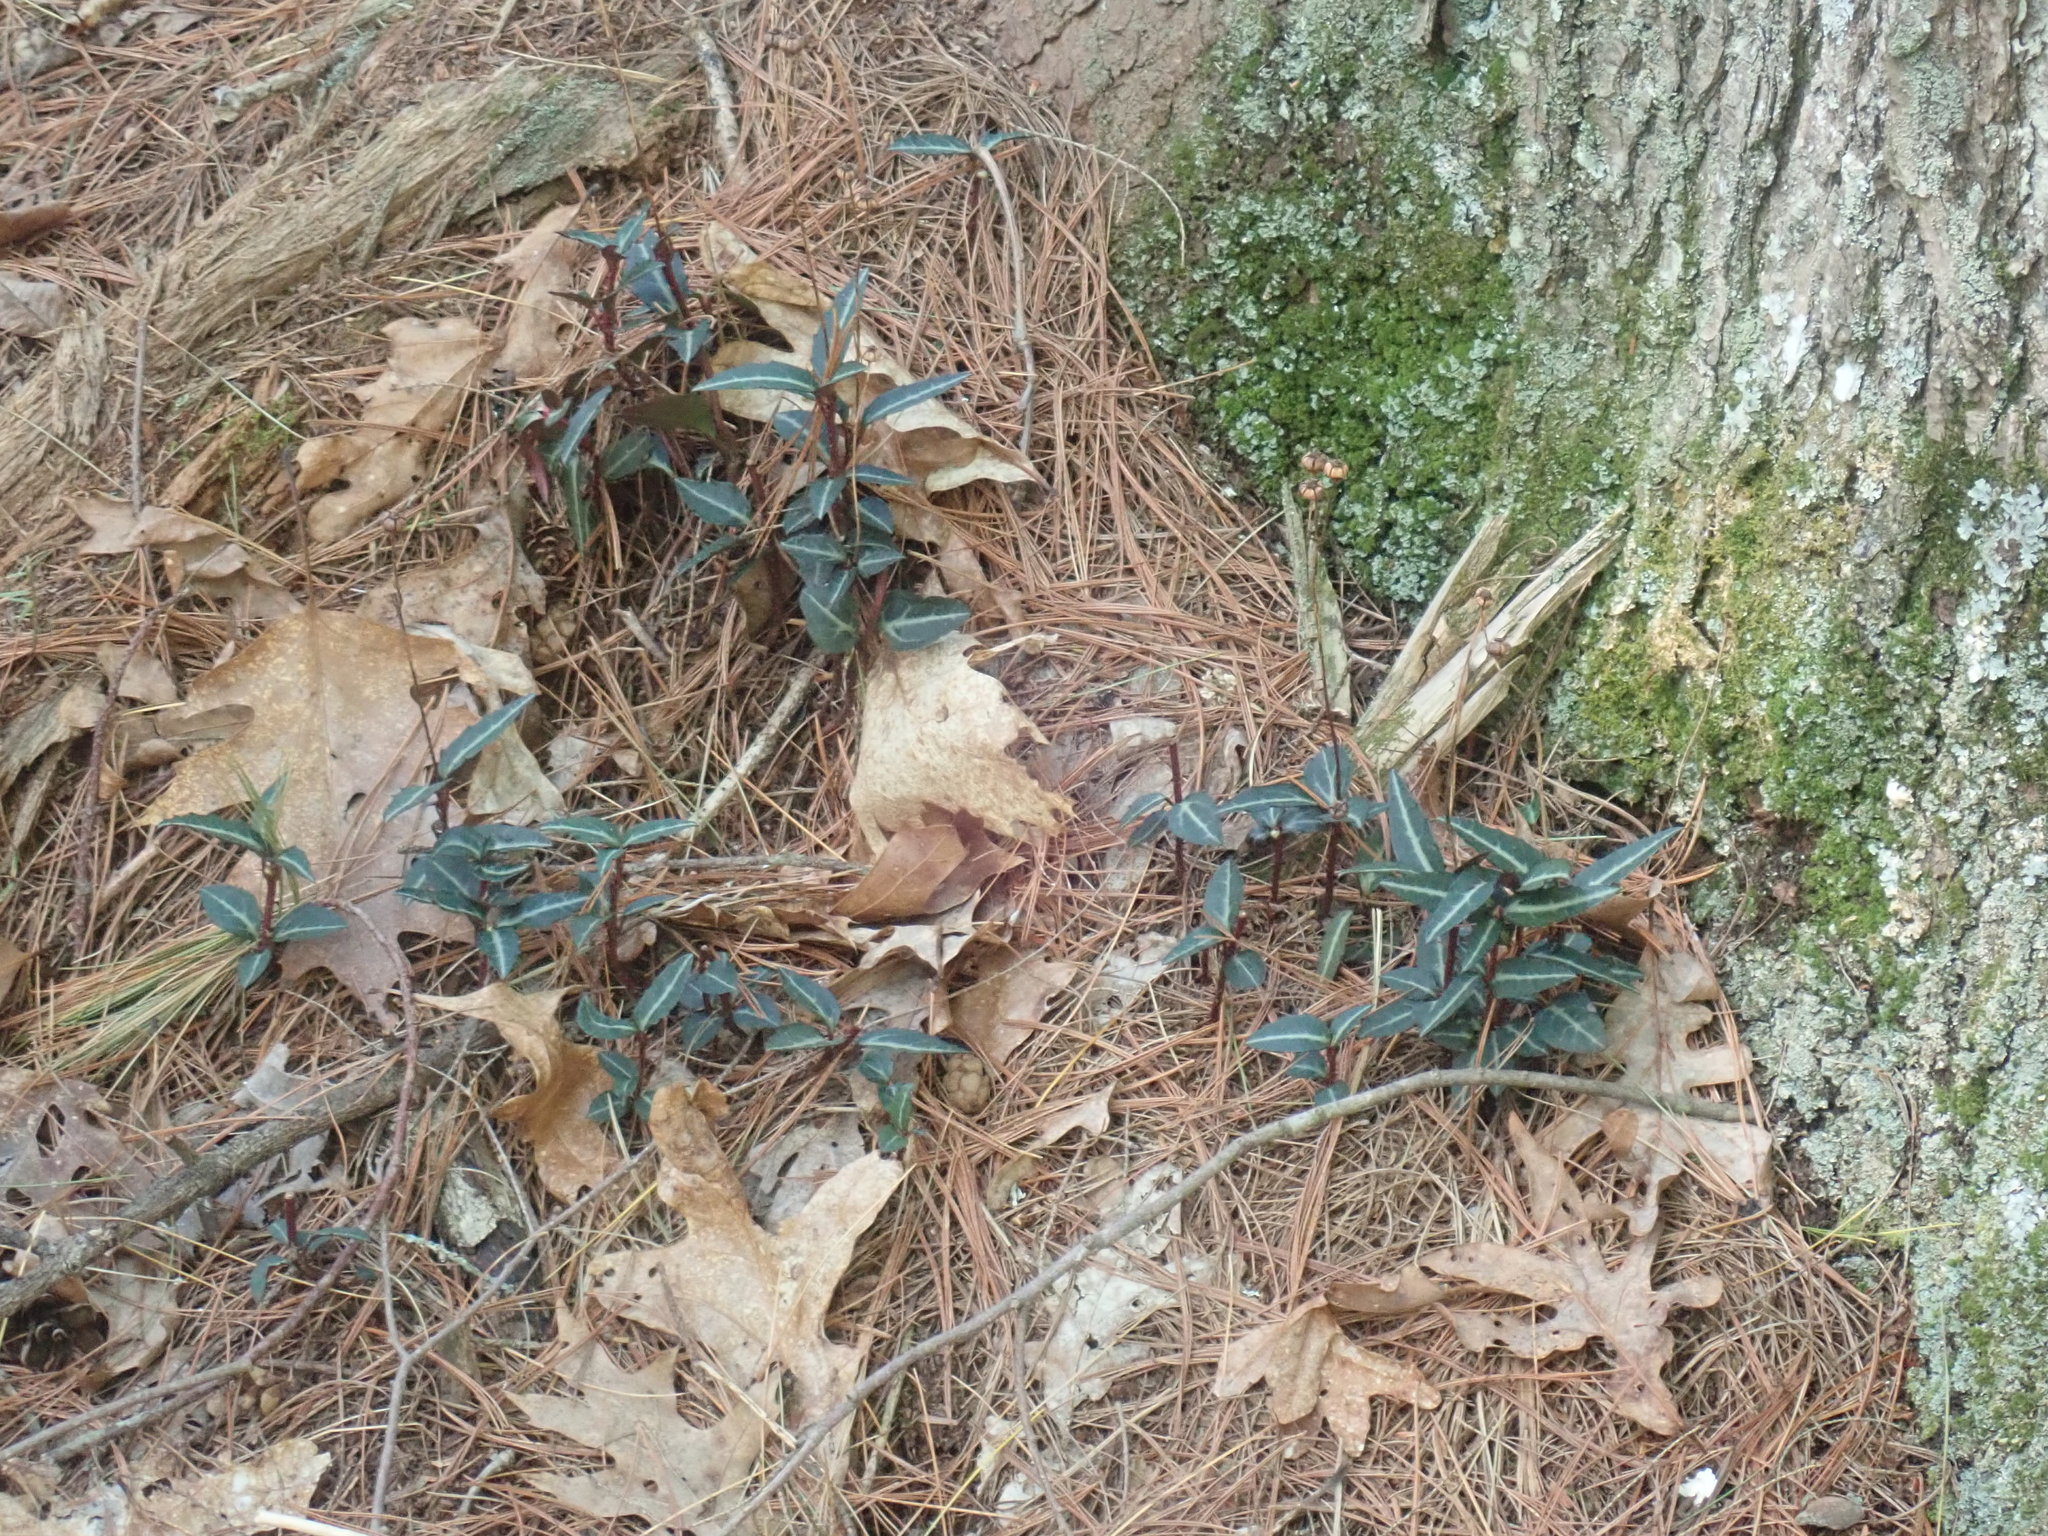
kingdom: Plantae
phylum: Tracheophyta
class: Magnoliopsida
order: Ericales
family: Ericaceae
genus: Chimaphila
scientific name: Chimaphila maculata
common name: Spotted pipsissewa
